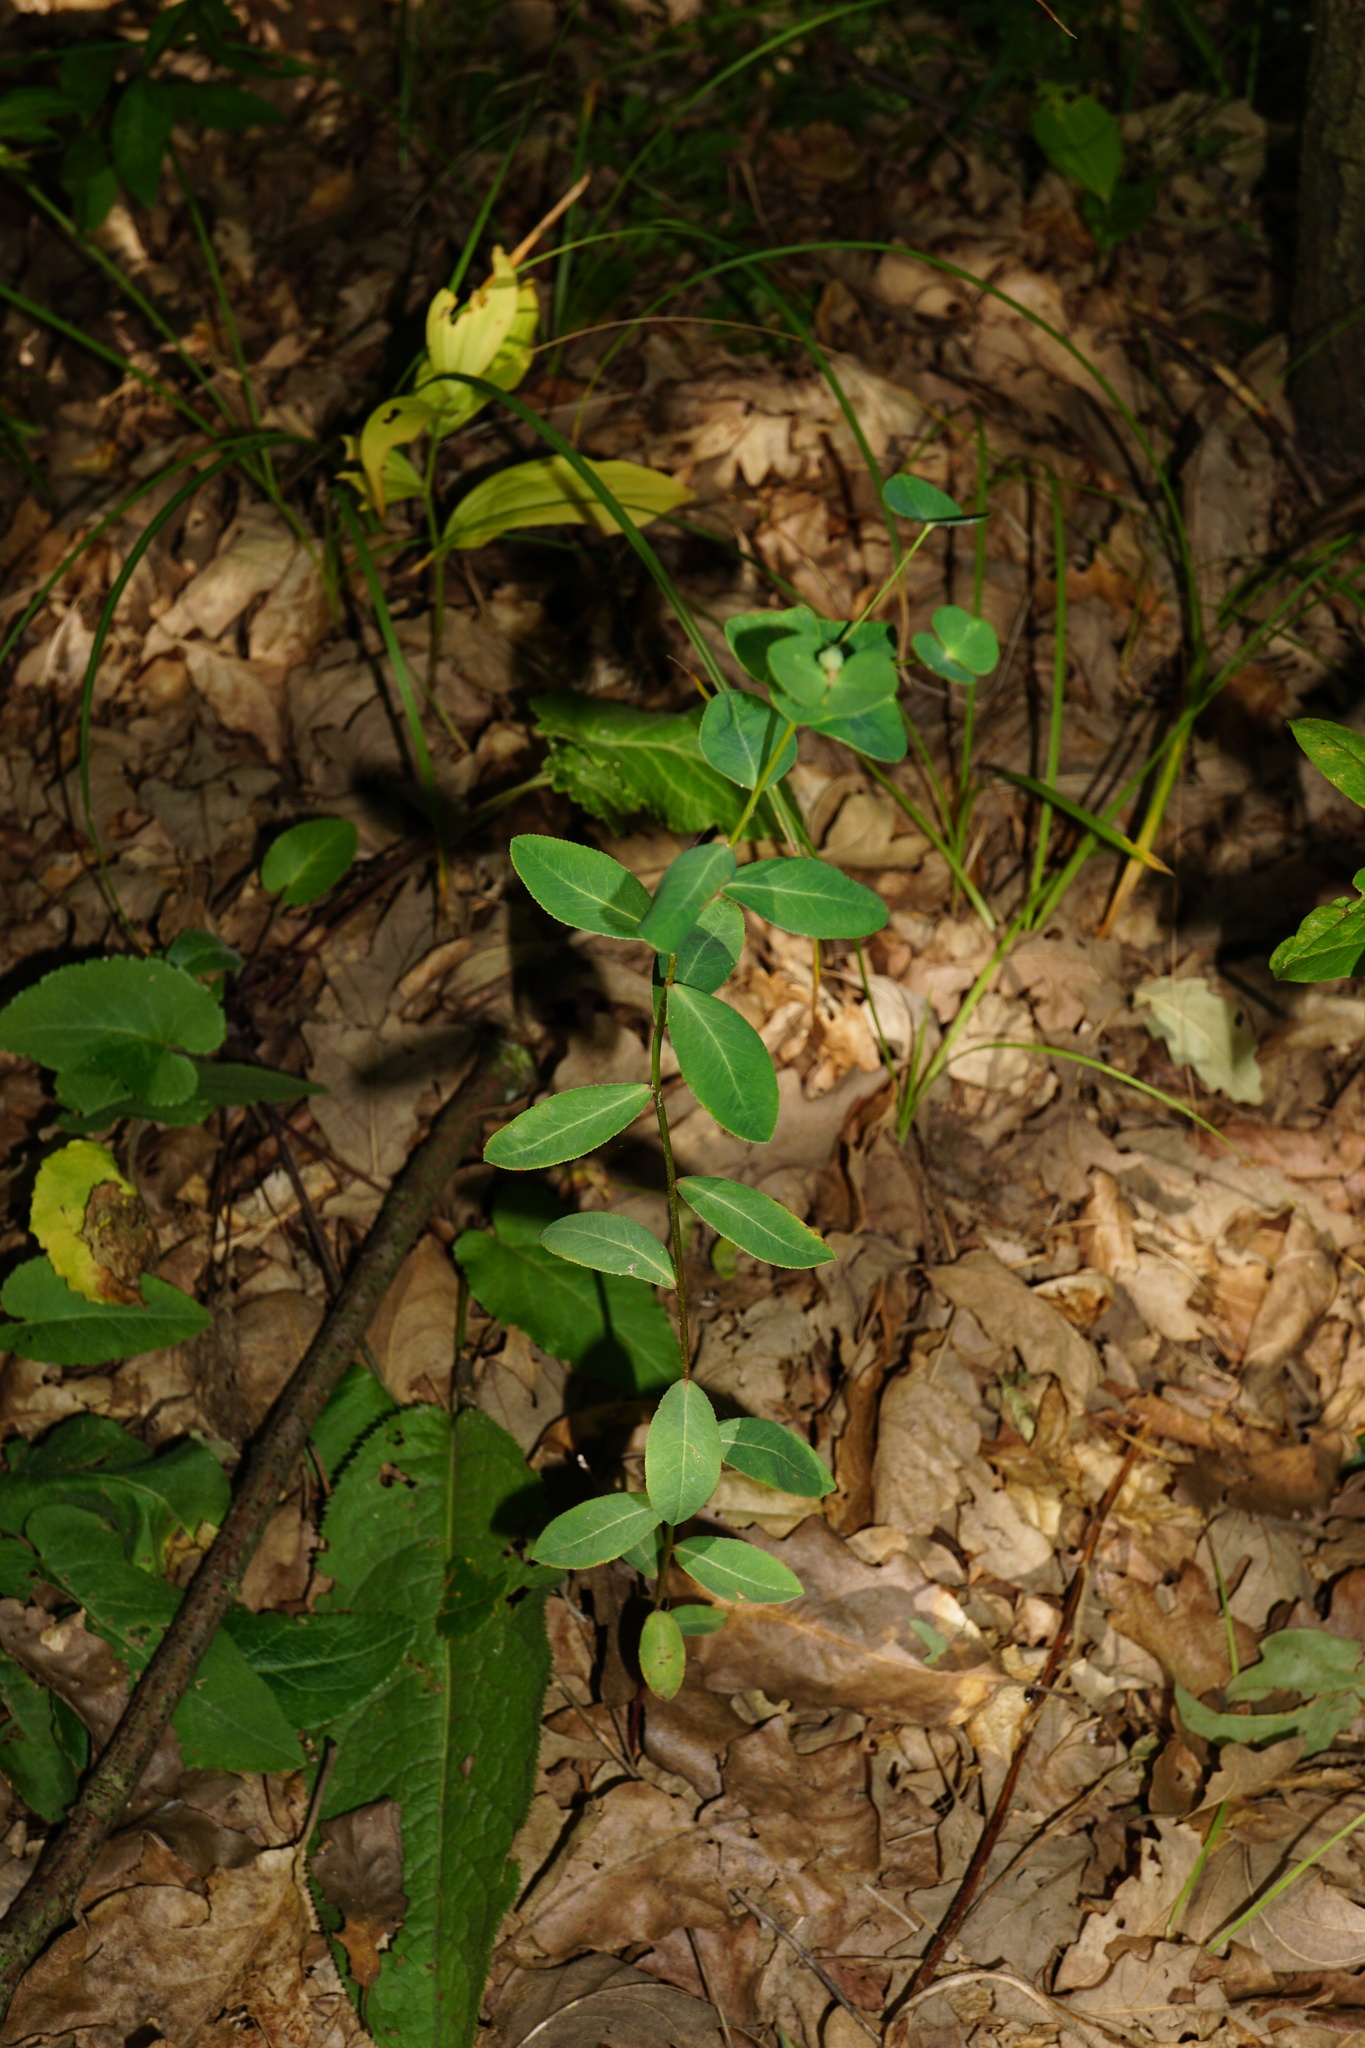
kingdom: Plantae
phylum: Tracheophyta
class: Magnoliopsida
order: Malpighiales
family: Euphorbiaceae
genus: Euphorbia
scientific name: Euphorbia angulata
